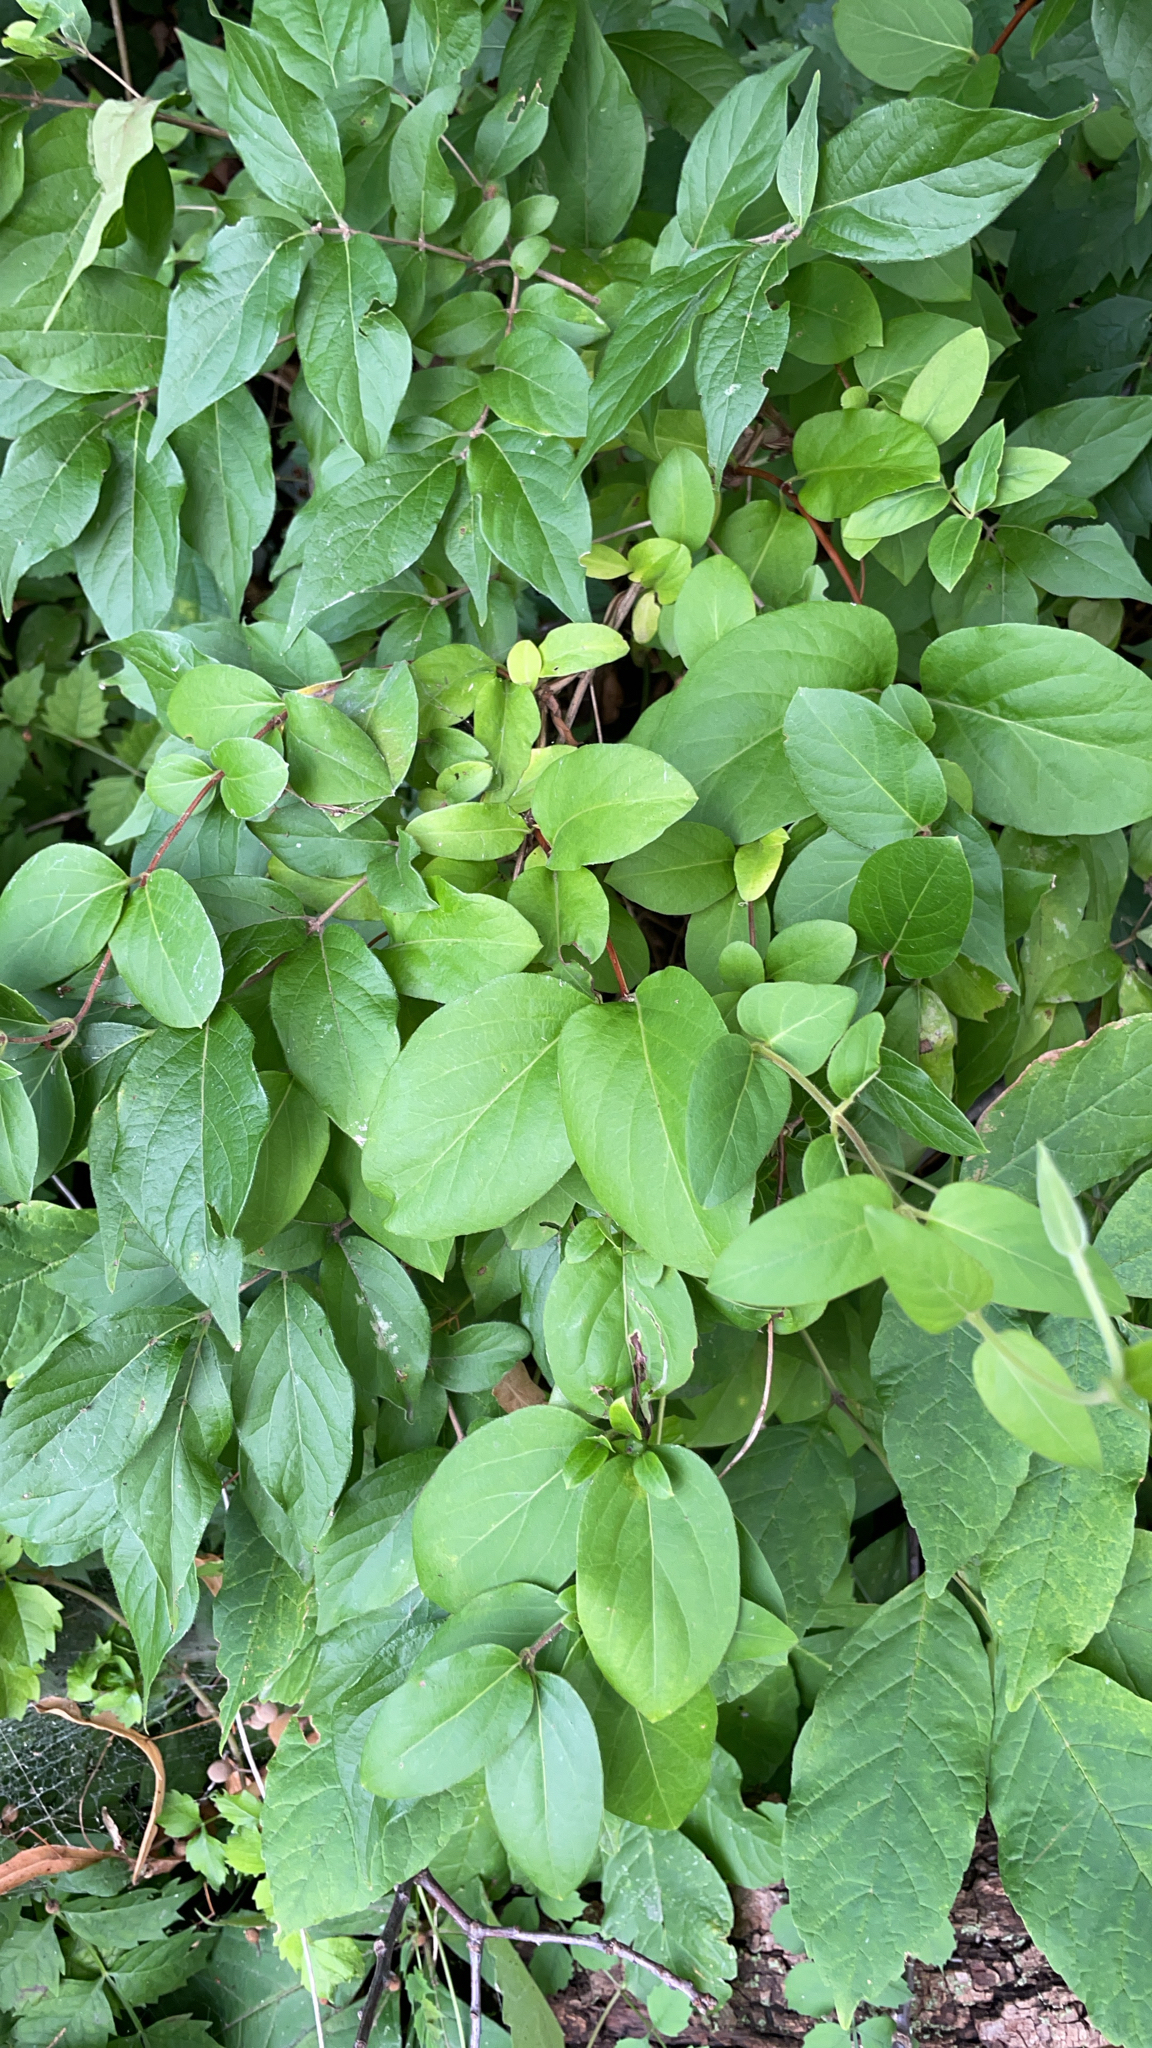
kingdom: Plantae
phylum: Tracheophyta
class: Magnoliopsida
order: Dipsacales
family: Caprifoliaceae
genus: Lonicera
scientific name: Lonicera japonica
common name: Japanese honeysuckle
